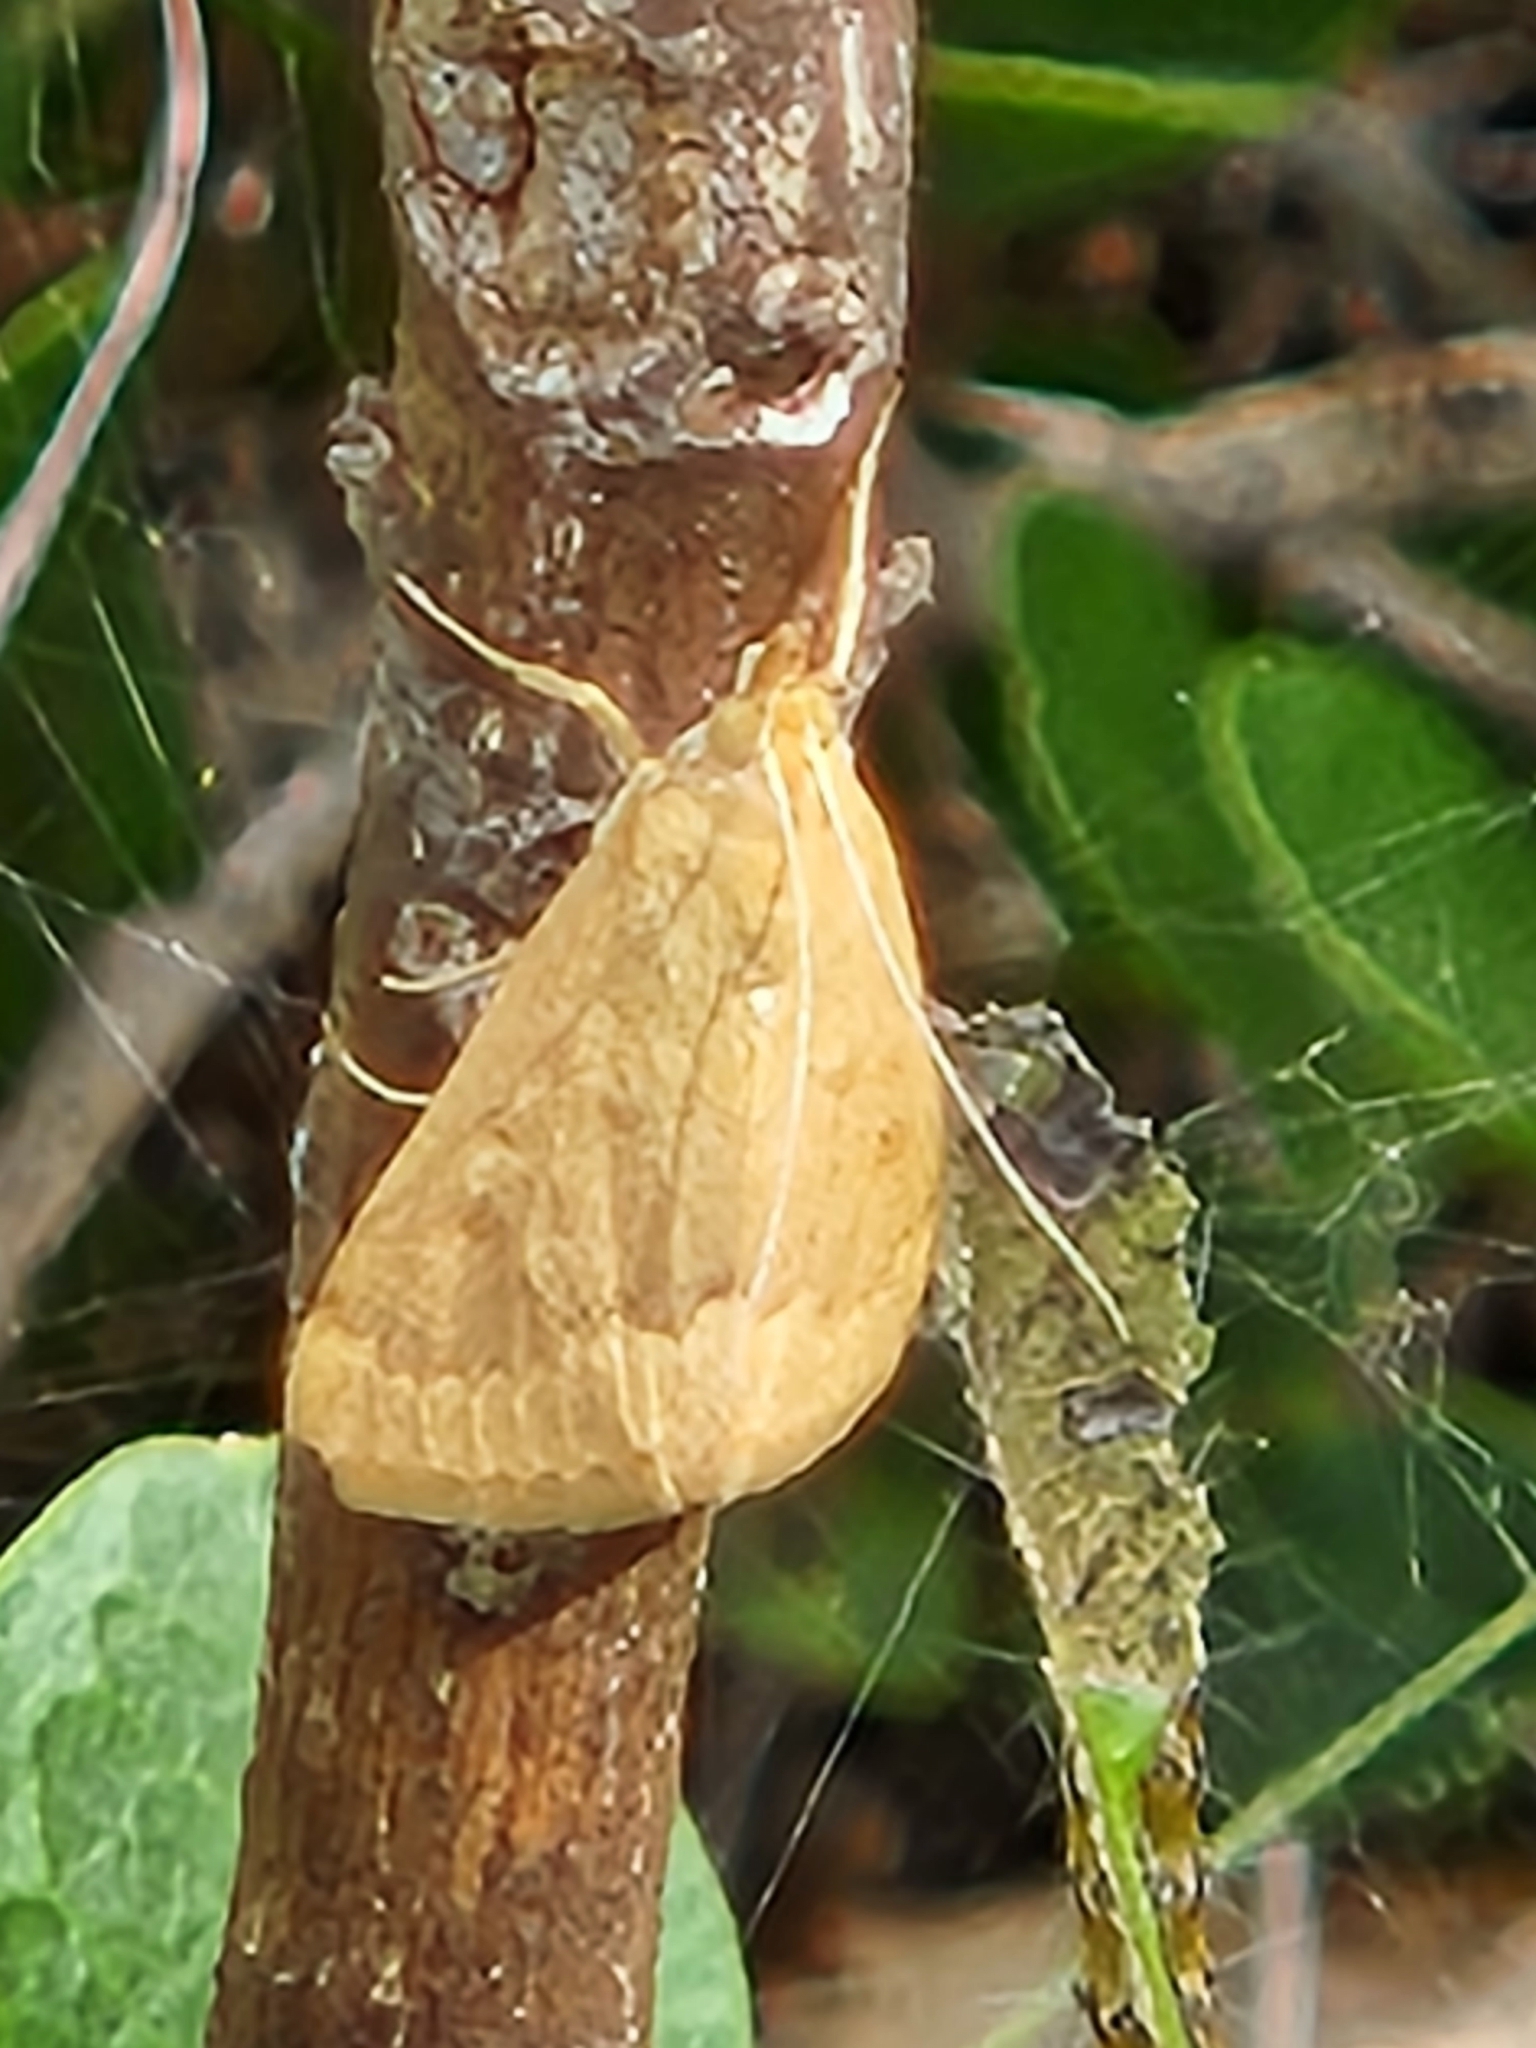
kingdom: Animalia
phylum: Arthropoda
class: Insecta
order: Lepidoptera
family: Crambidae
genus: Achyra
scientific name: Achyra rantalis
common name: Garden webworm
